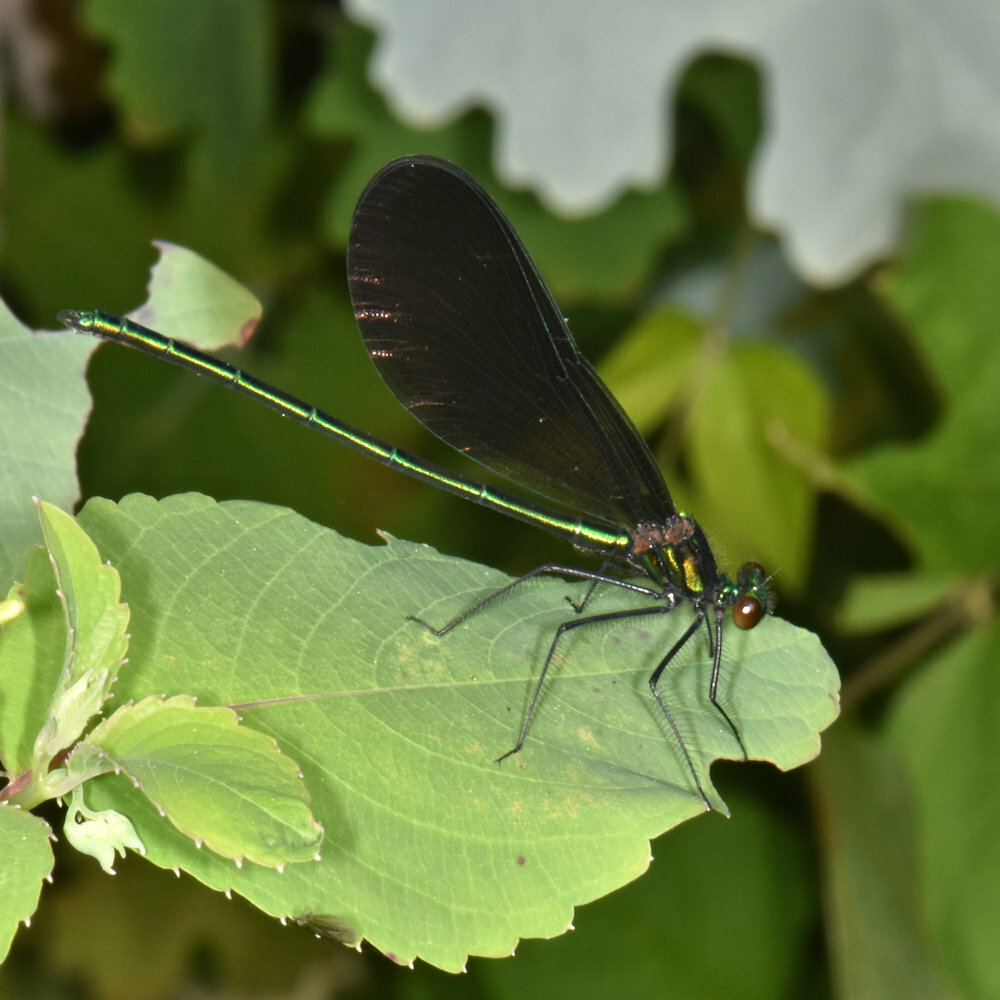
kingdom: Animalia
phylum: Arthropoda
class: Insecta
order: Odonata
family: Calopterygidae
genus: Calopteryx
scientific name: Calopteryx maculata
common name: Ebony jewelwing
